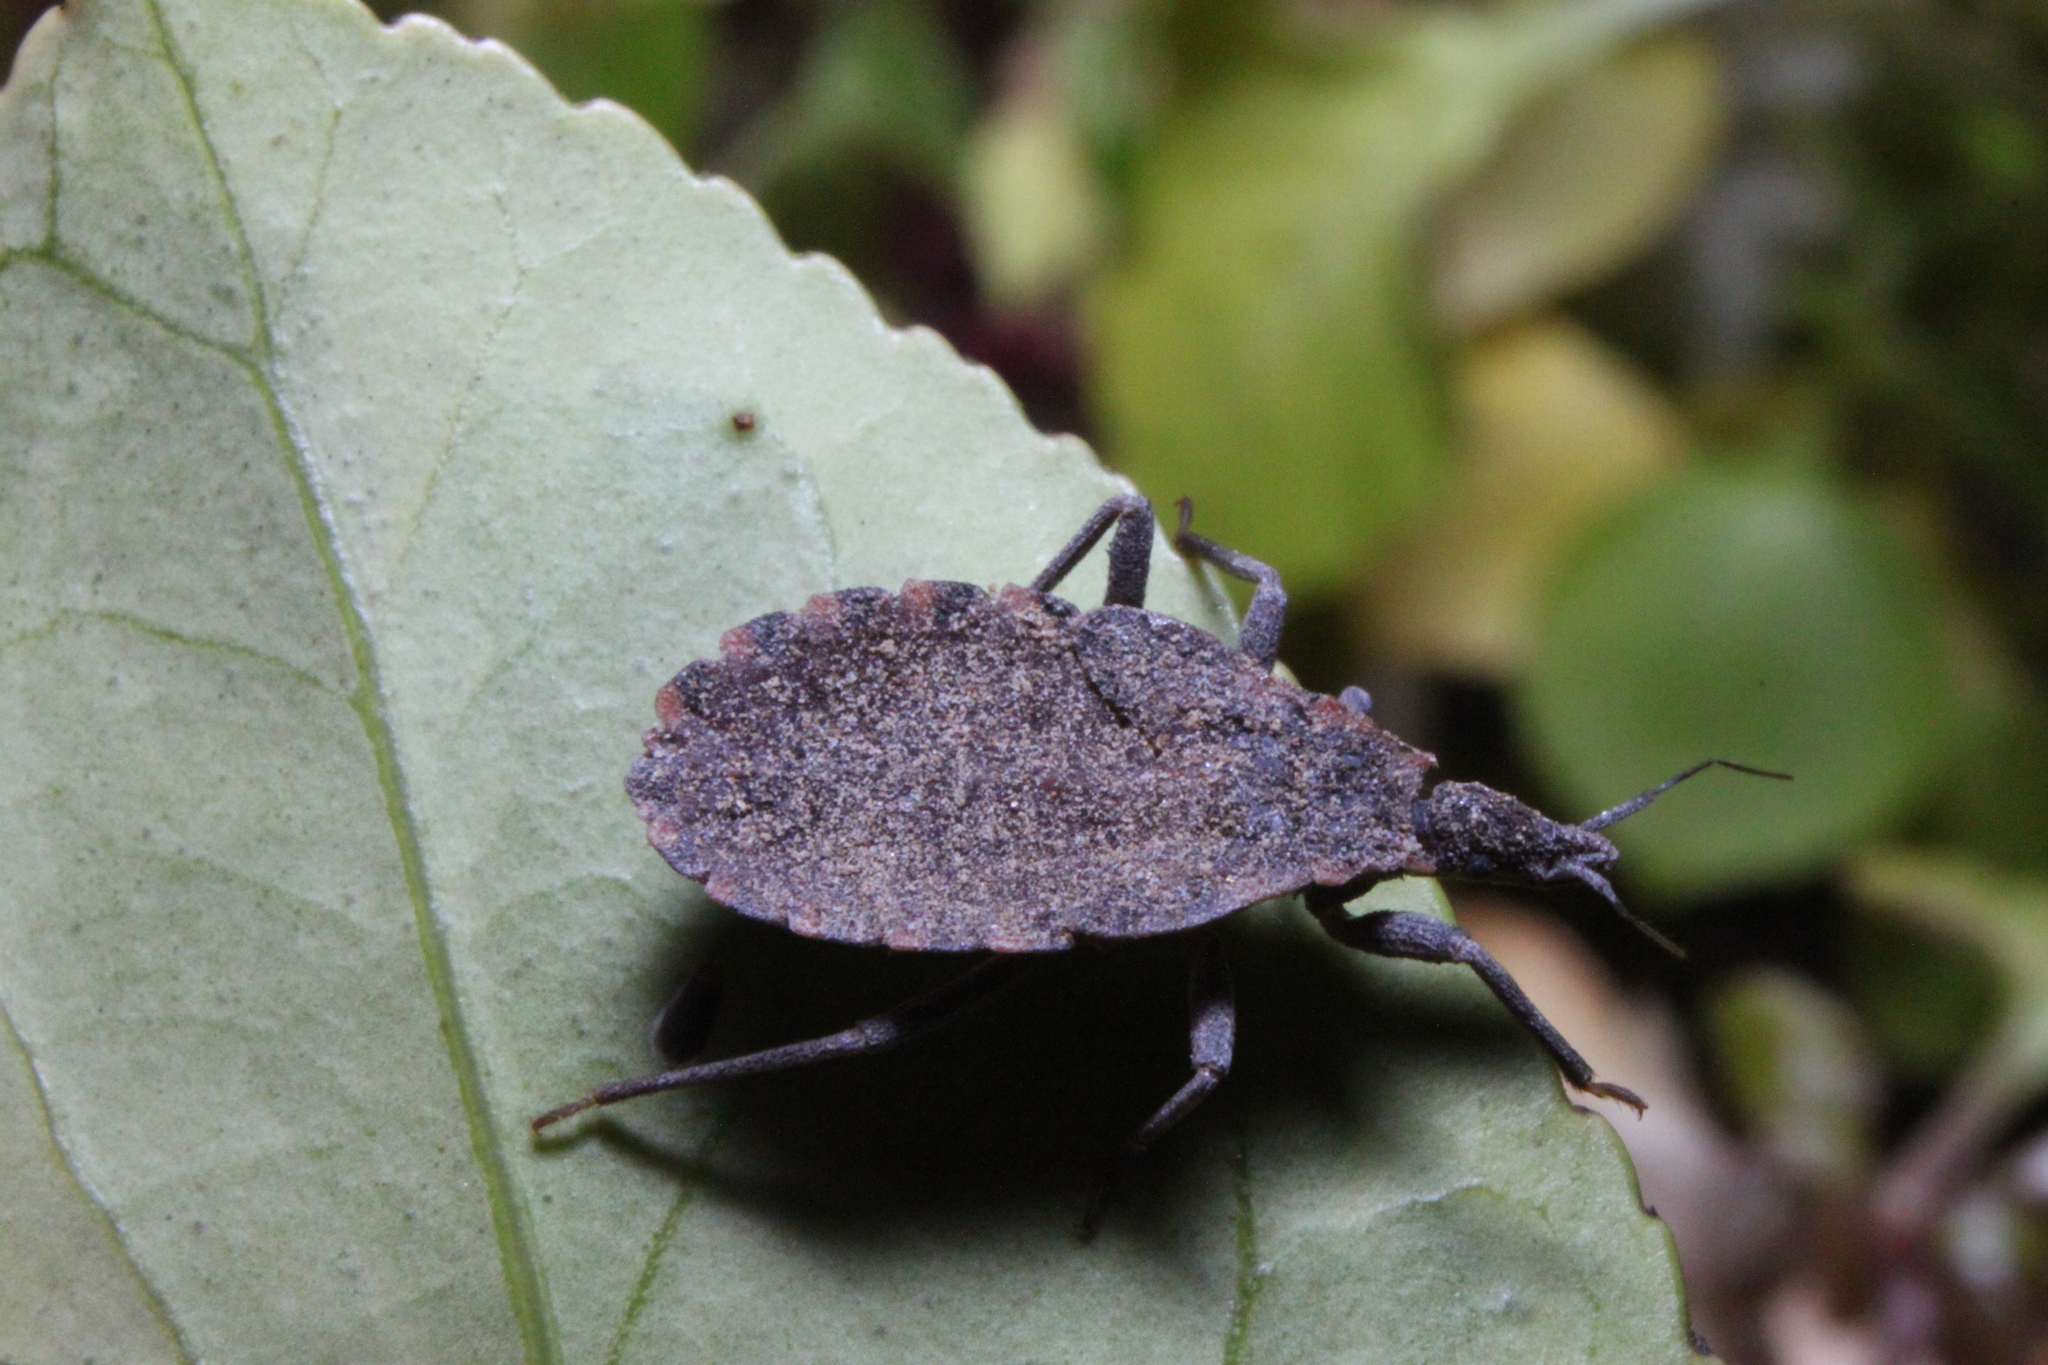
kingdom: Animalia
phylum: Arthropoda
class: Insecta
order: Hemiptera
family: Reduviidae
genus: Triatoma
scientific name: Triatoma sanguisuga
